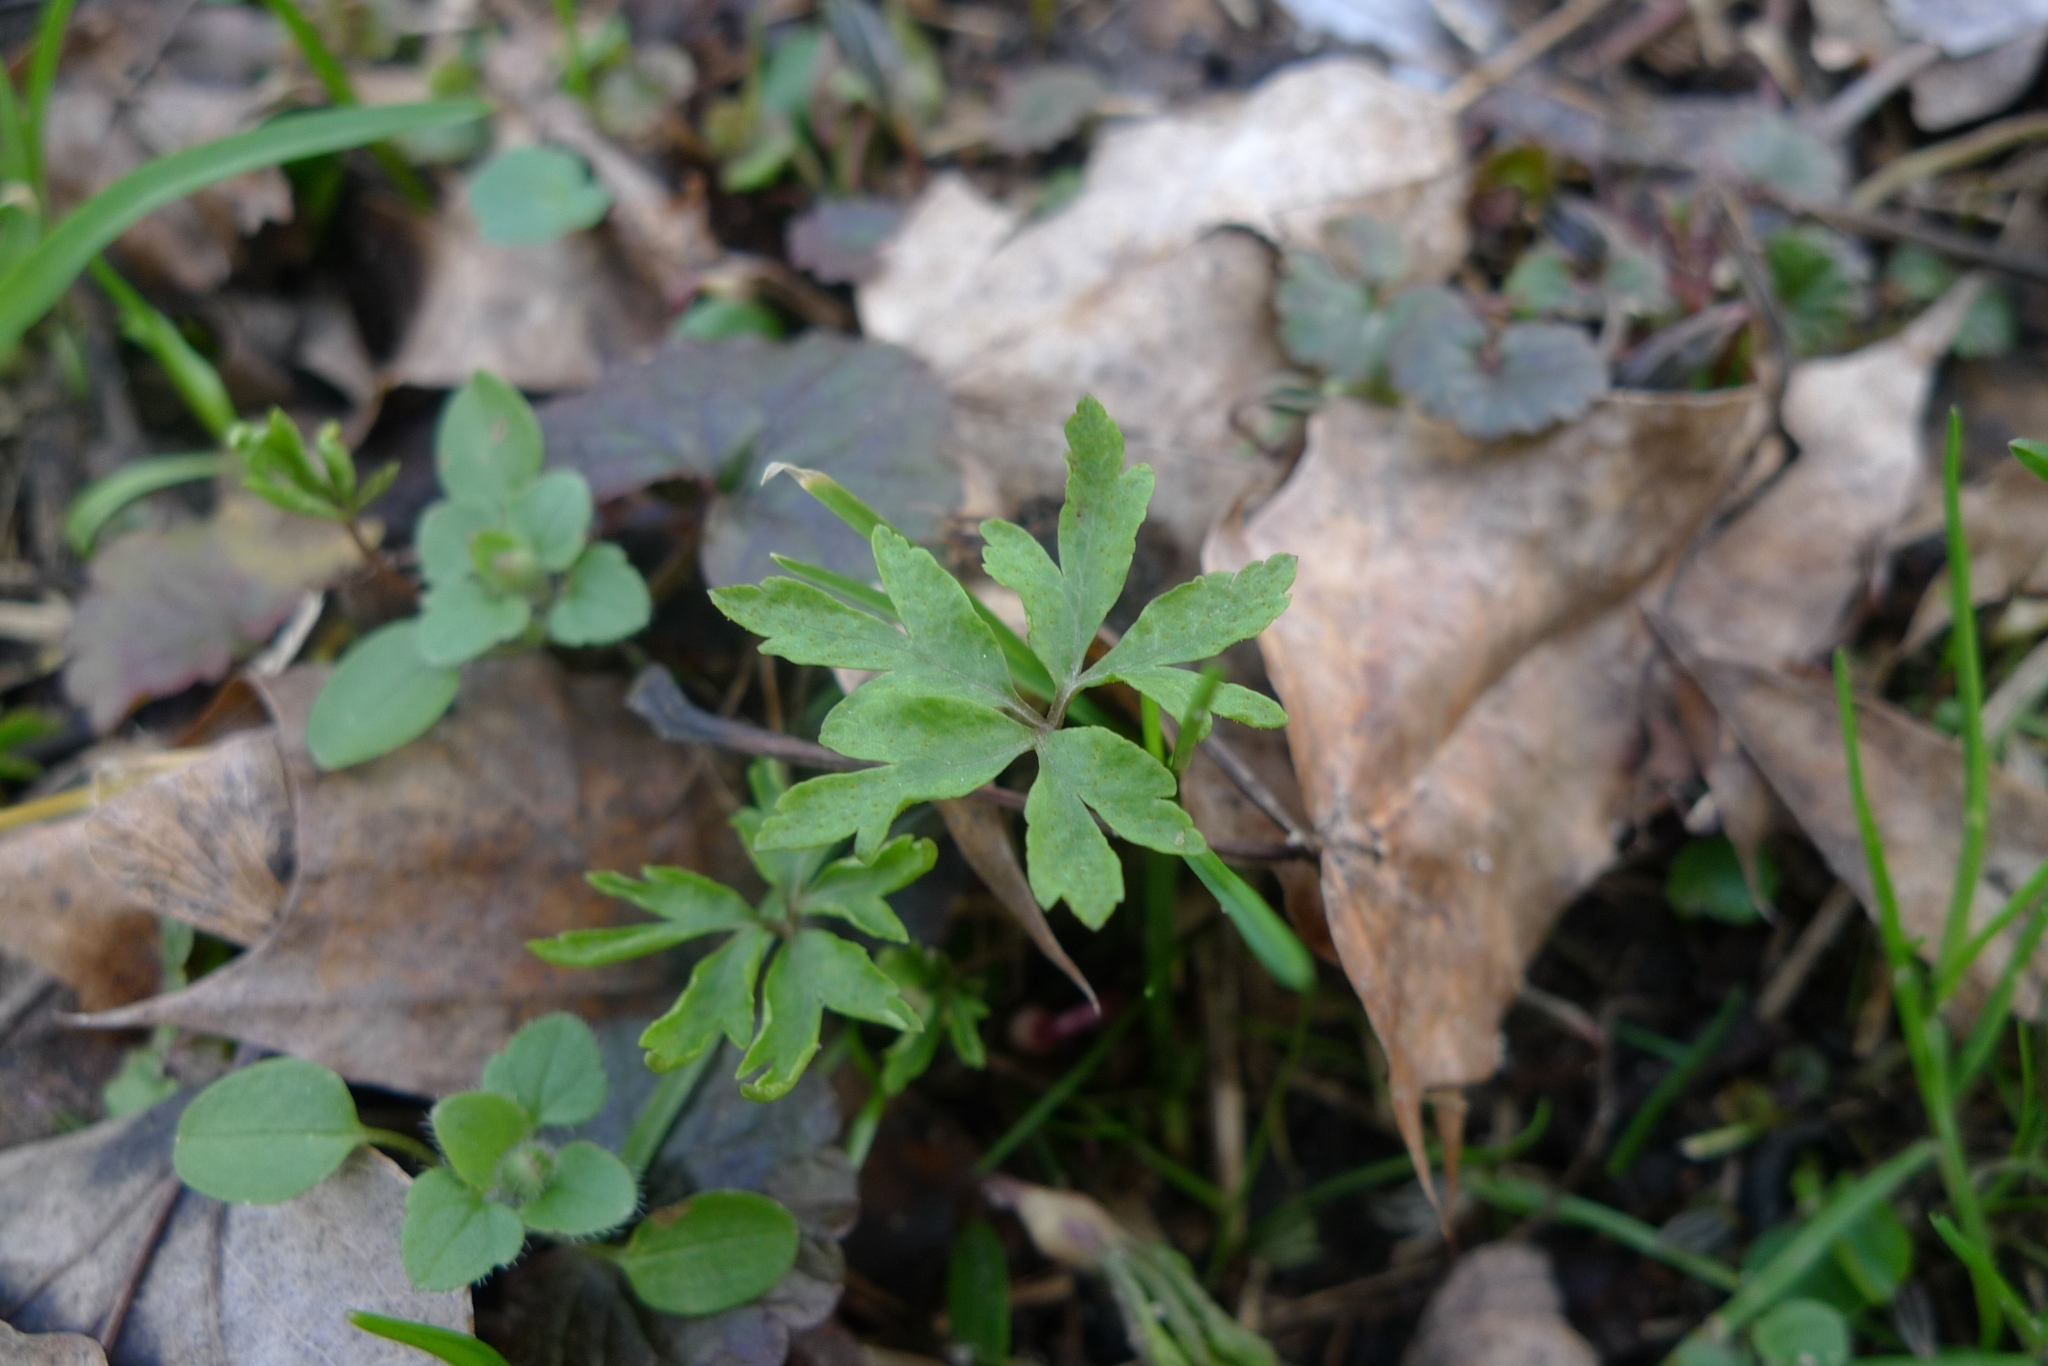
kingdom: Plantae
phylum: Tracheophyta
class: Magnoliopsida
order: Ranunculales
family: Ranunculaceae
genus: Anemone
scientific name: Anemone ranunculoides
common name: Yellow anemone
